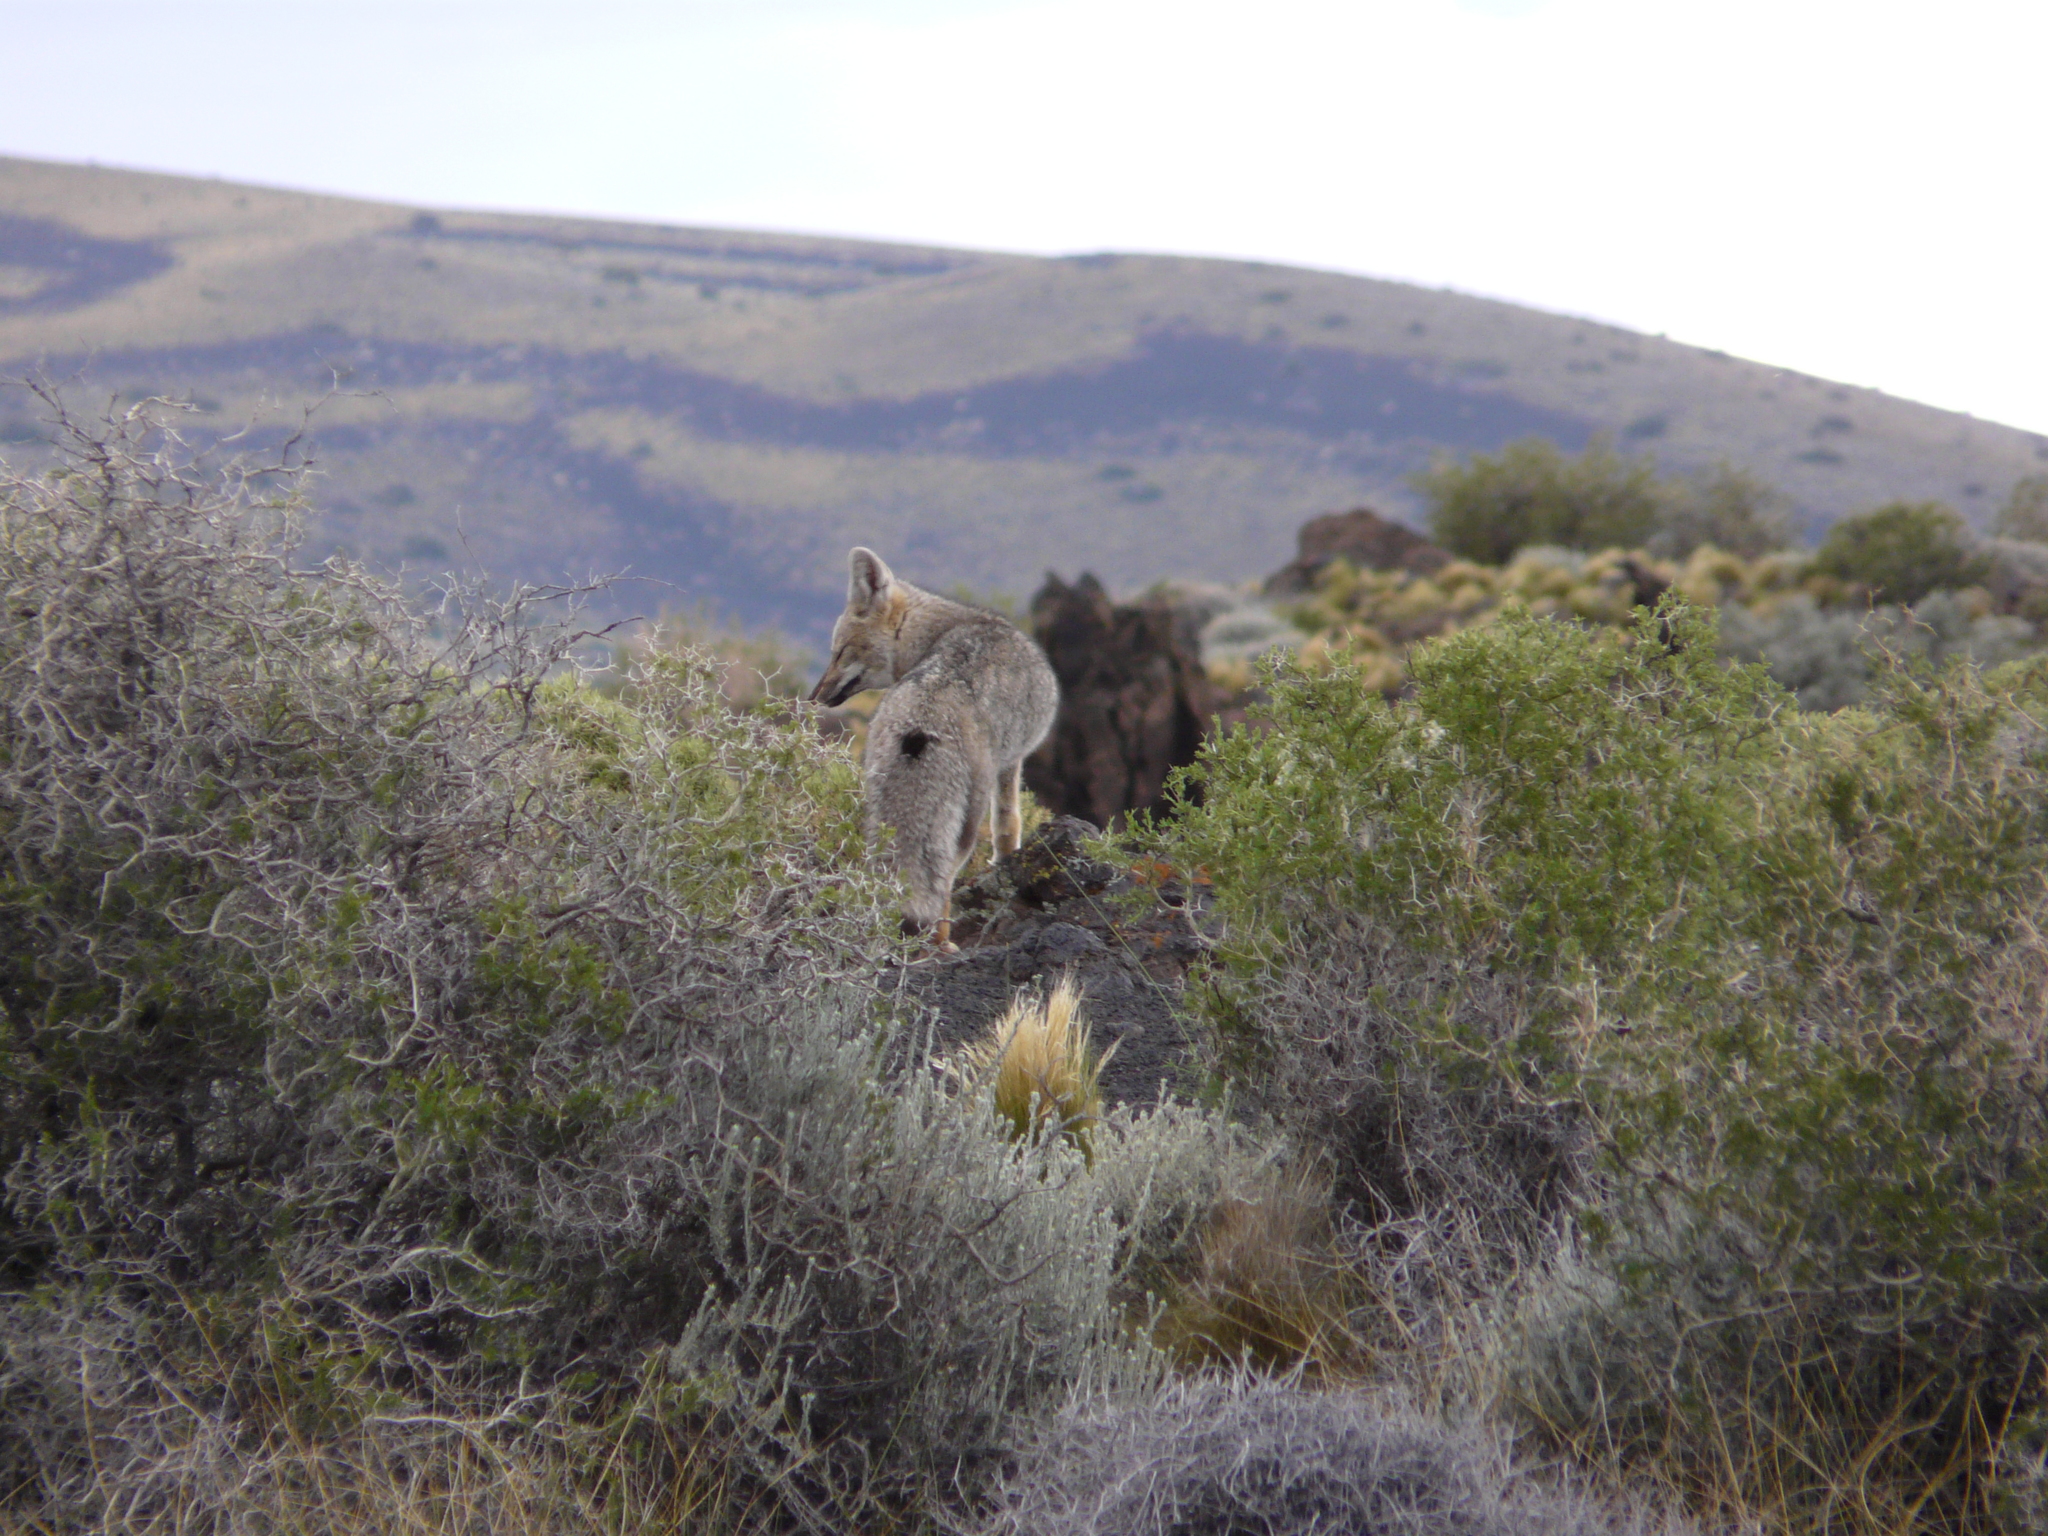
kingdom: Animalia
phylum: Chordata
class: Mammalia
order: Carnivora
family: Canidae
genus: Lycalopex
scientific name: Lycalopex gymnocercus
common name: Pampas fox
